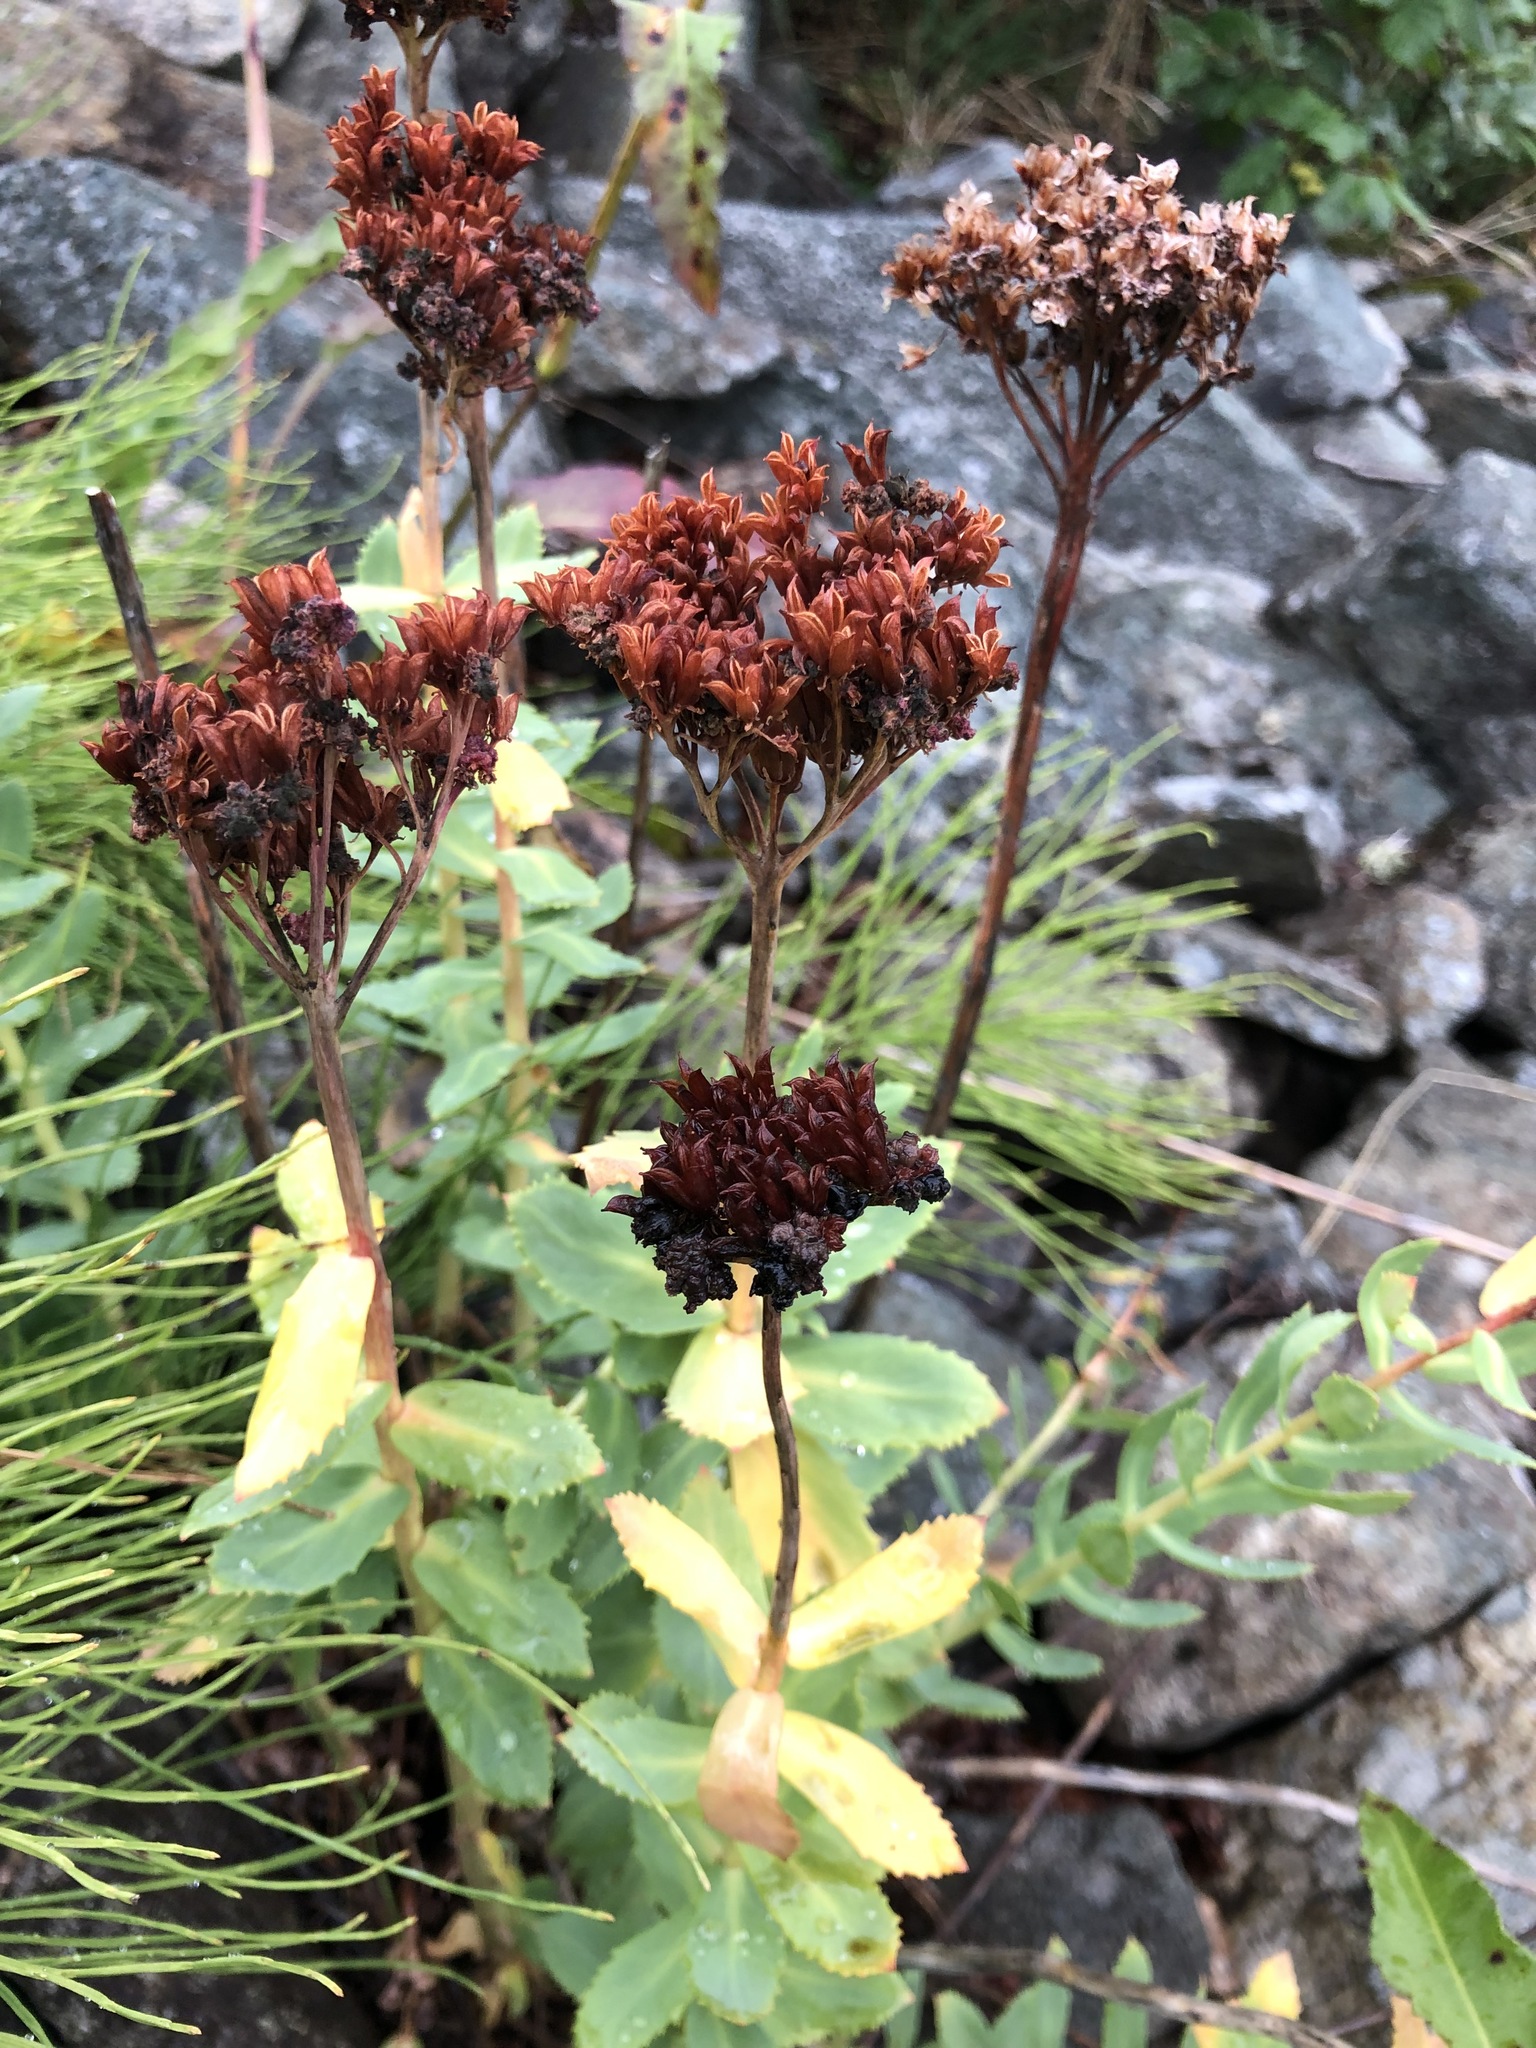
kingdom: Plantae
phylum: Tracheophyta
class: Magnoliopsida
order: Saxifragales
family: Crassulaceae
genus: Rhodiola
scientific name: Rhodiola rosea
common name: Roseroot
